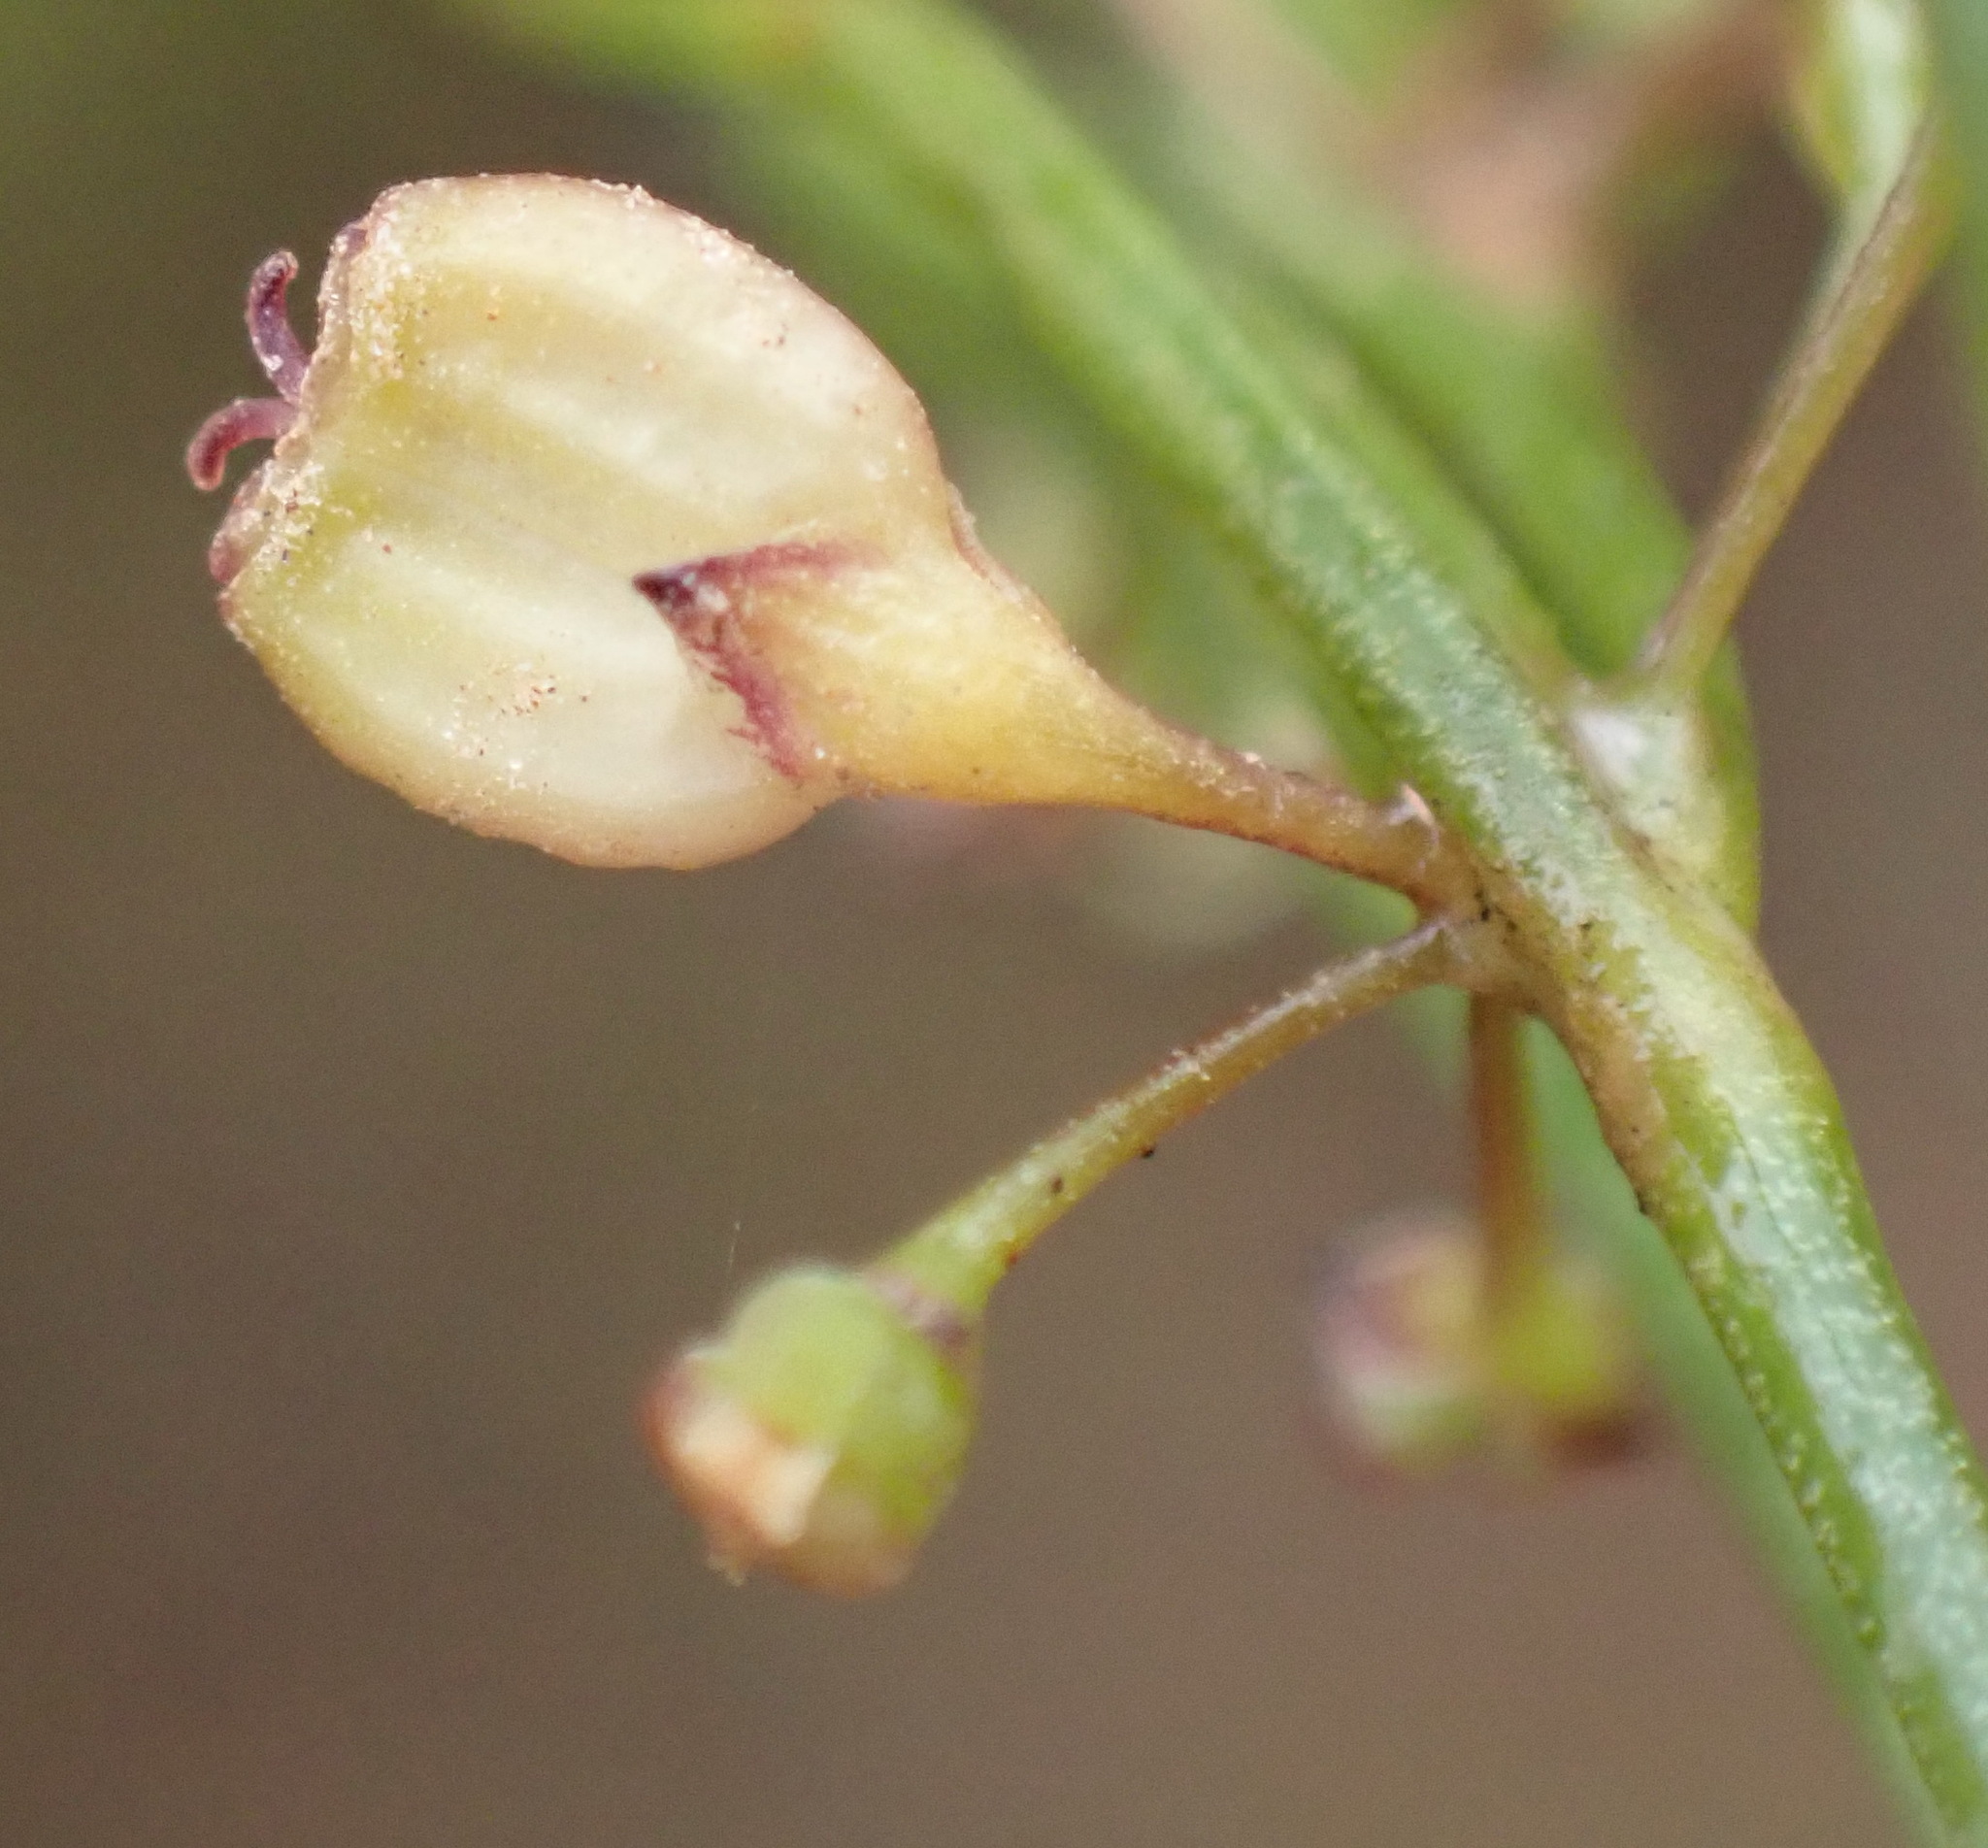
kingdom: Plantae
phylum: Tracheophyta
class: Magnoliopsida
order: Apiales
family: Apiaceae
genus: Centella
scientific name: Centella virgata
